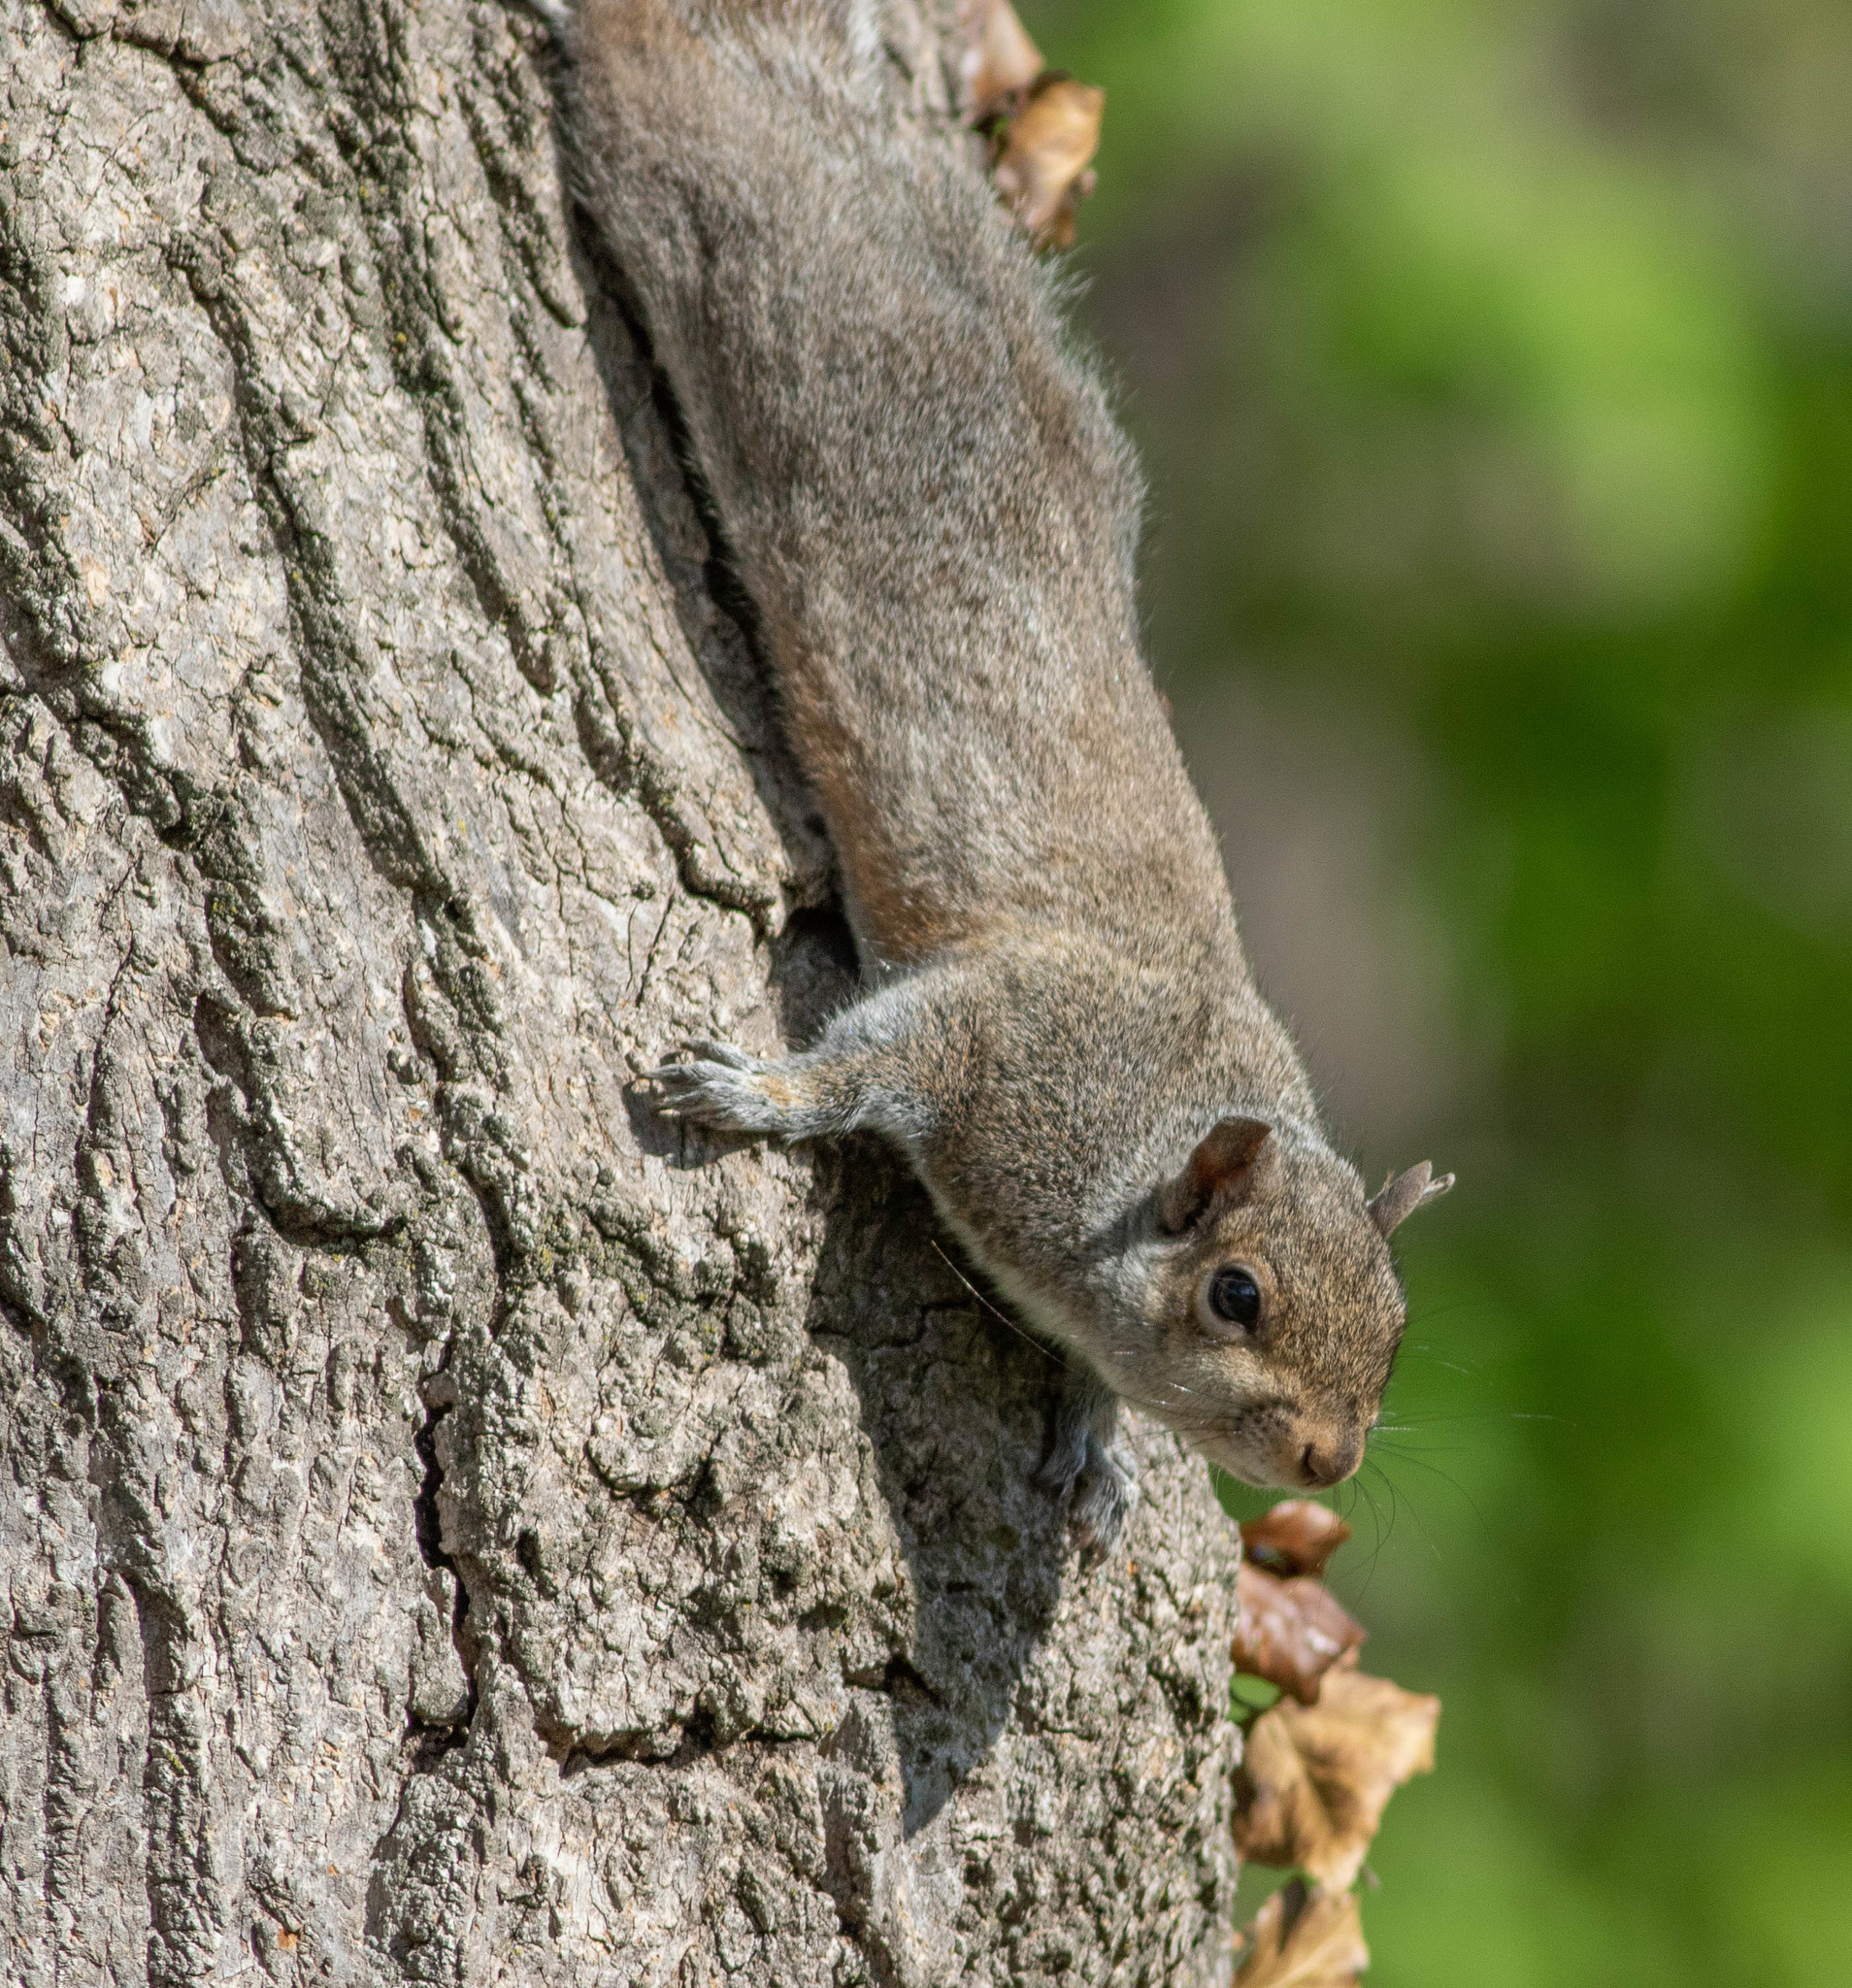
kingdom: Animalia
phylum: Chordata
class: Mammalia
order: Rodentia
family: Sciuridae
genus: Sciurus
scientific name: Sciurus carolinensis
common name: Eastern gray squirrel
